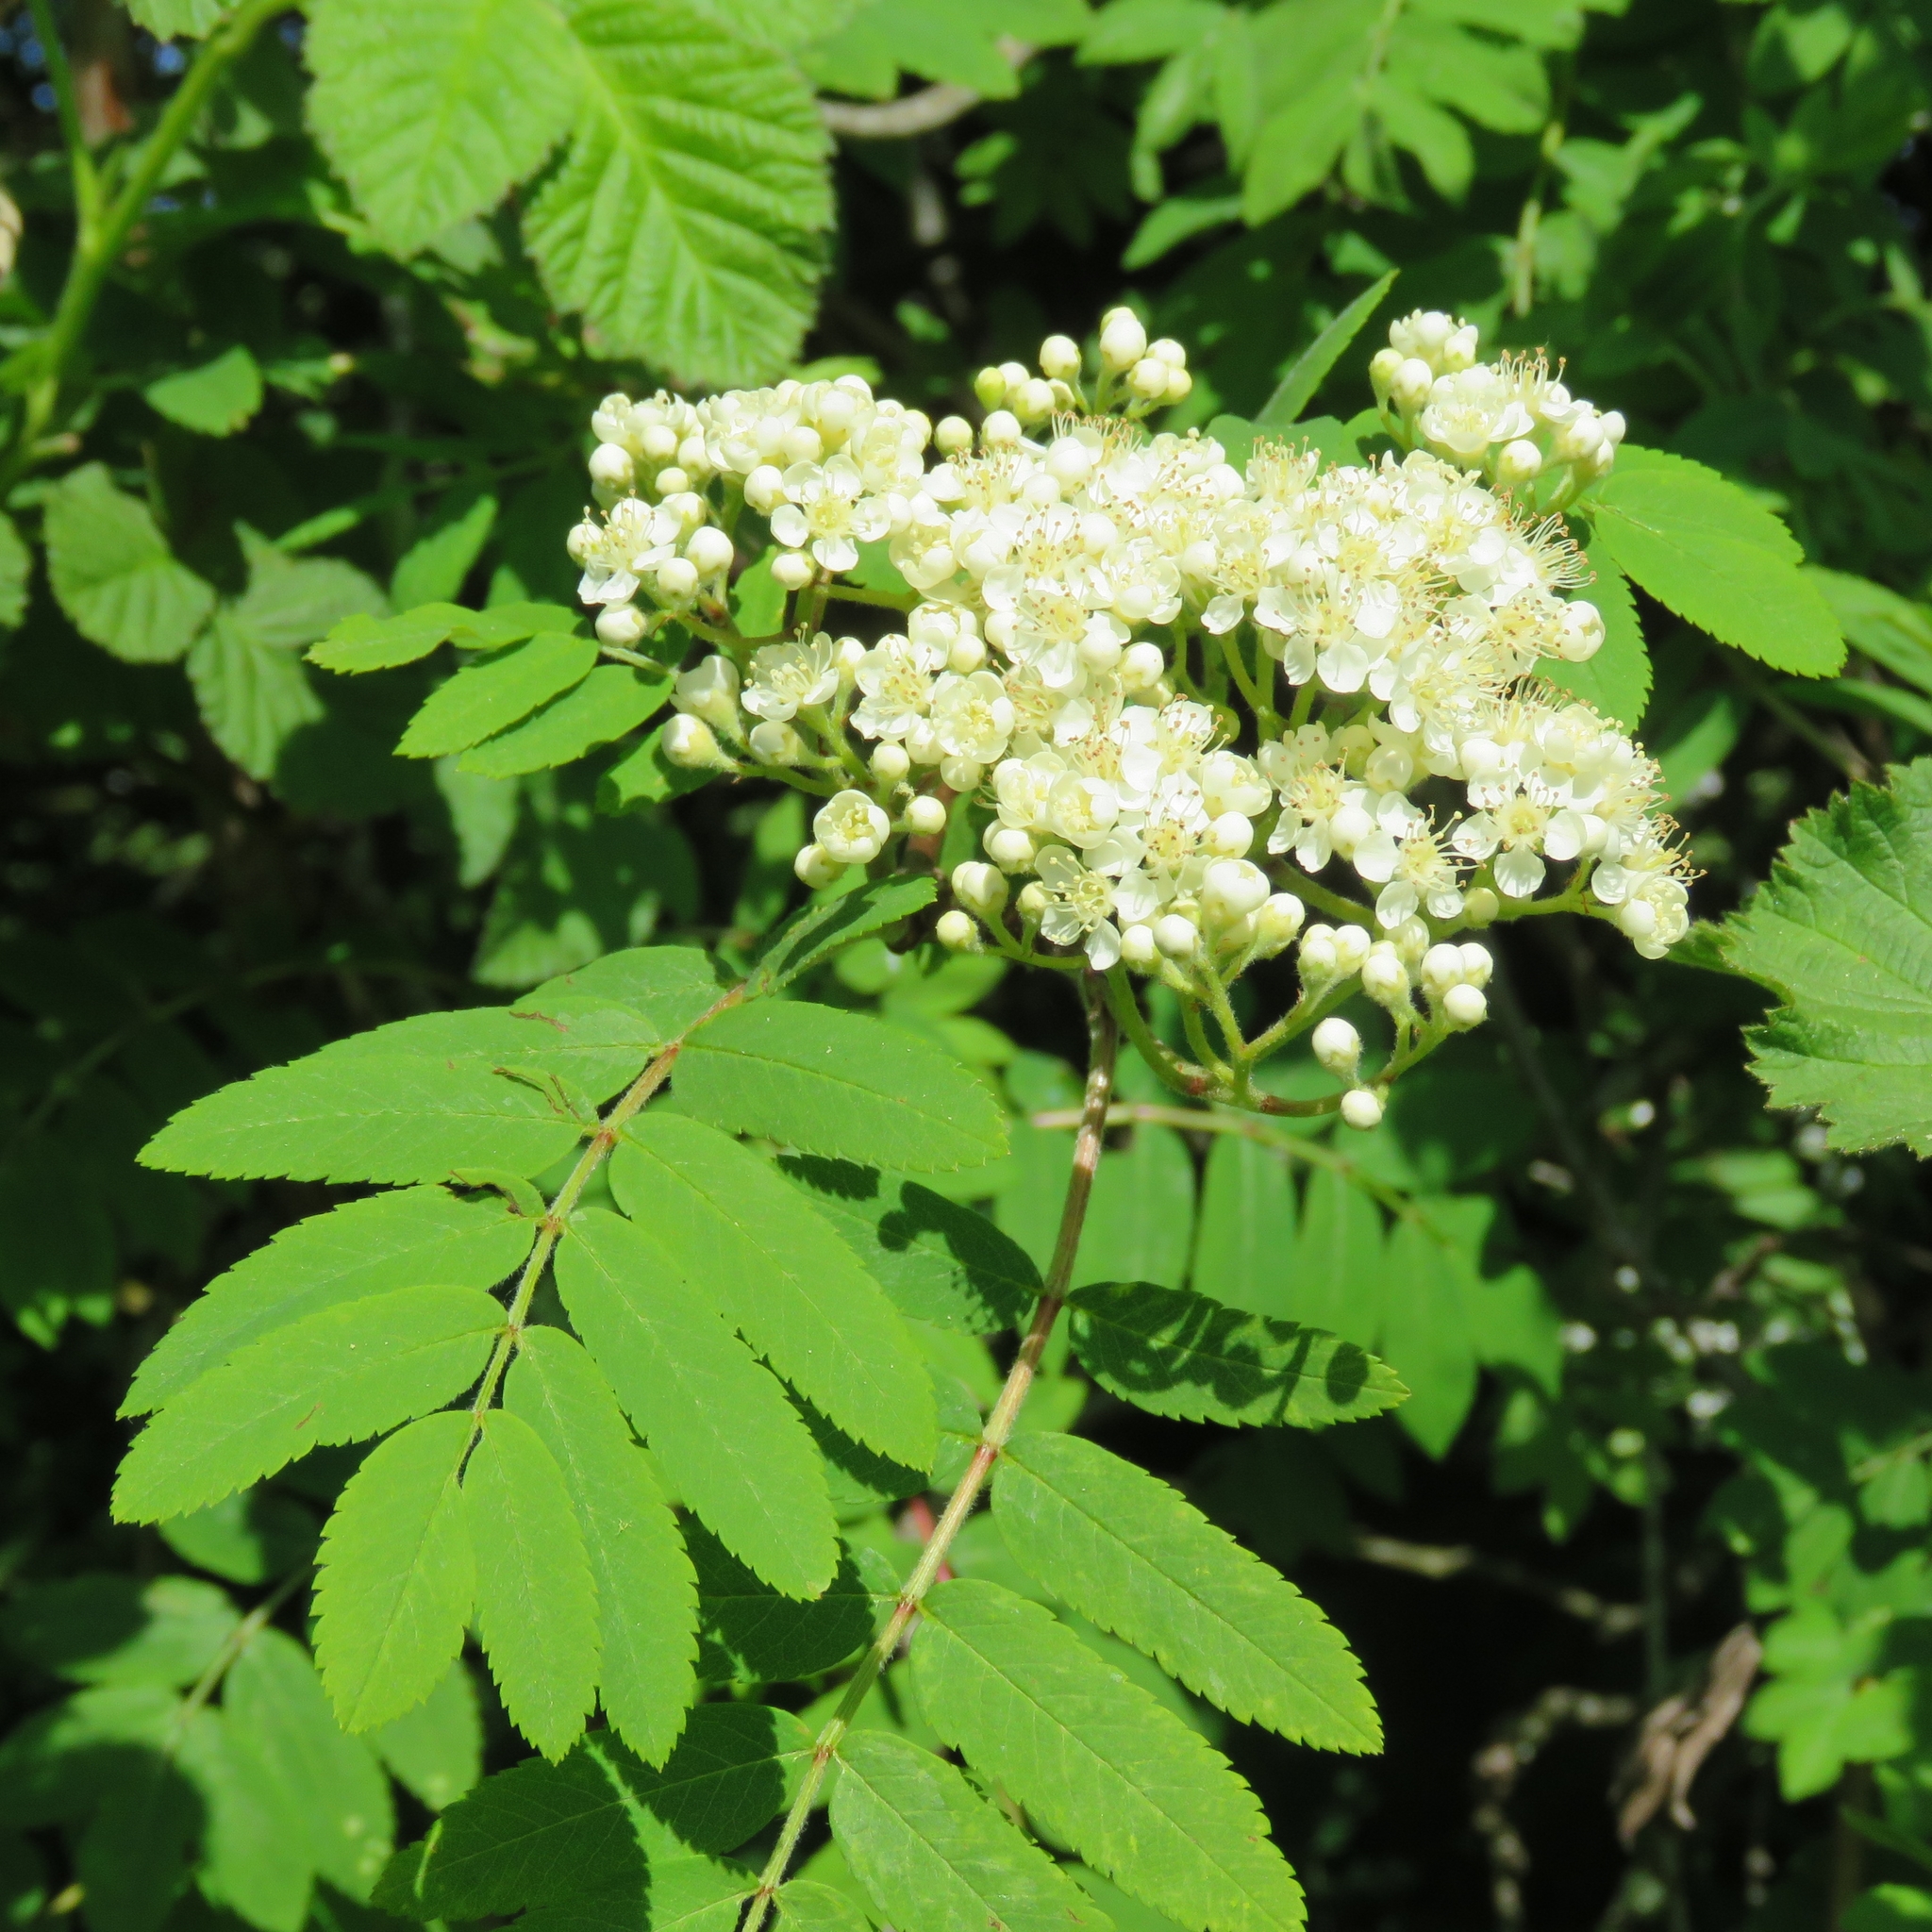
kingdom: Plantae
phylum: Tracheophyta
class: Magnoliopsida
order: Rosales
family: Rosaceae
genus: Sorbus
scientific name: Sorbus aucuparia
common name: Rowan
